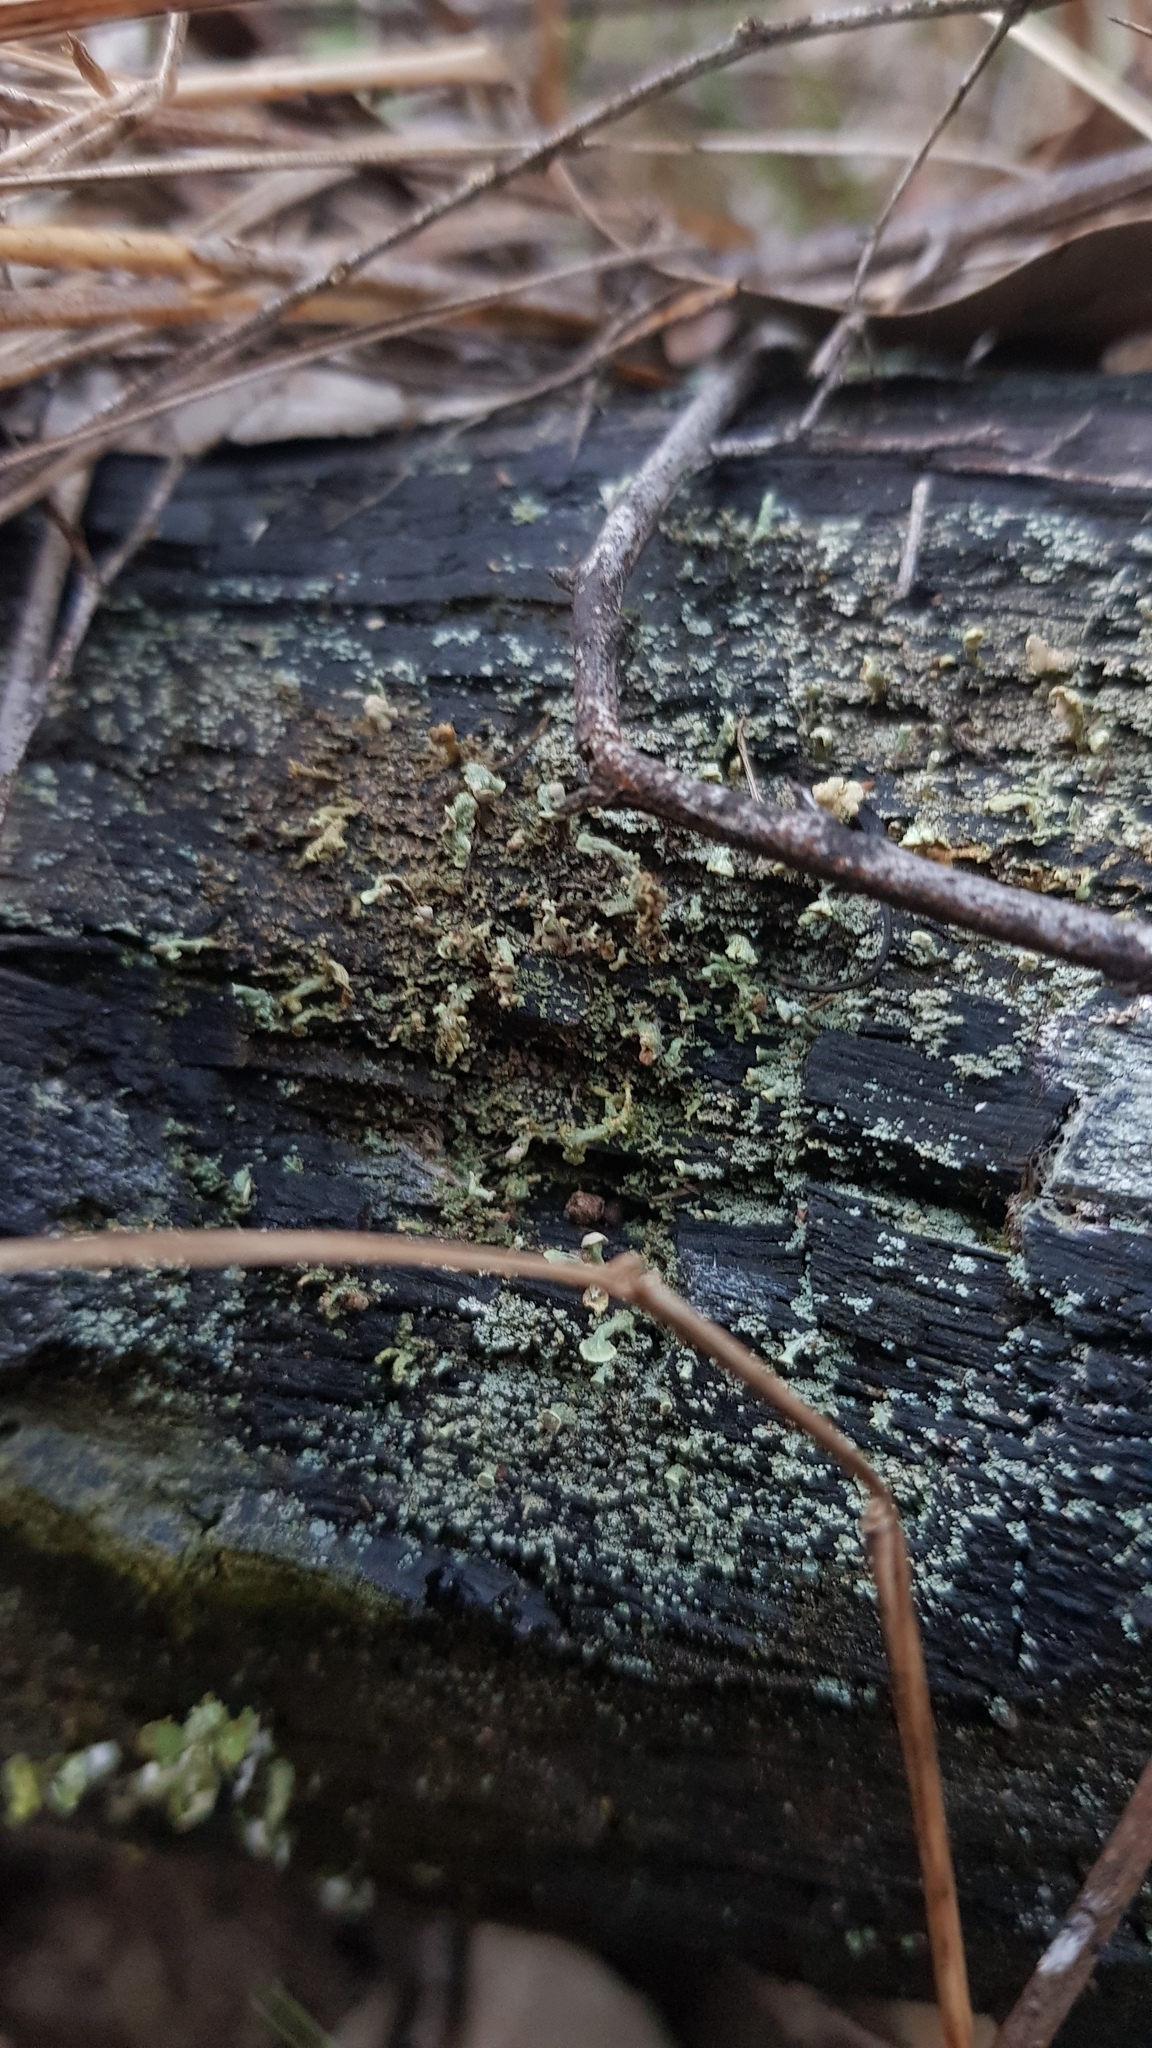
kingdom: Fungi
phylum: Ascomycota
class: Lecanoromycetes
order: Lecanorales
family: Cladoniaceae
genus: Thysanothecium
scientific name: Thysanothecium scutellatum
